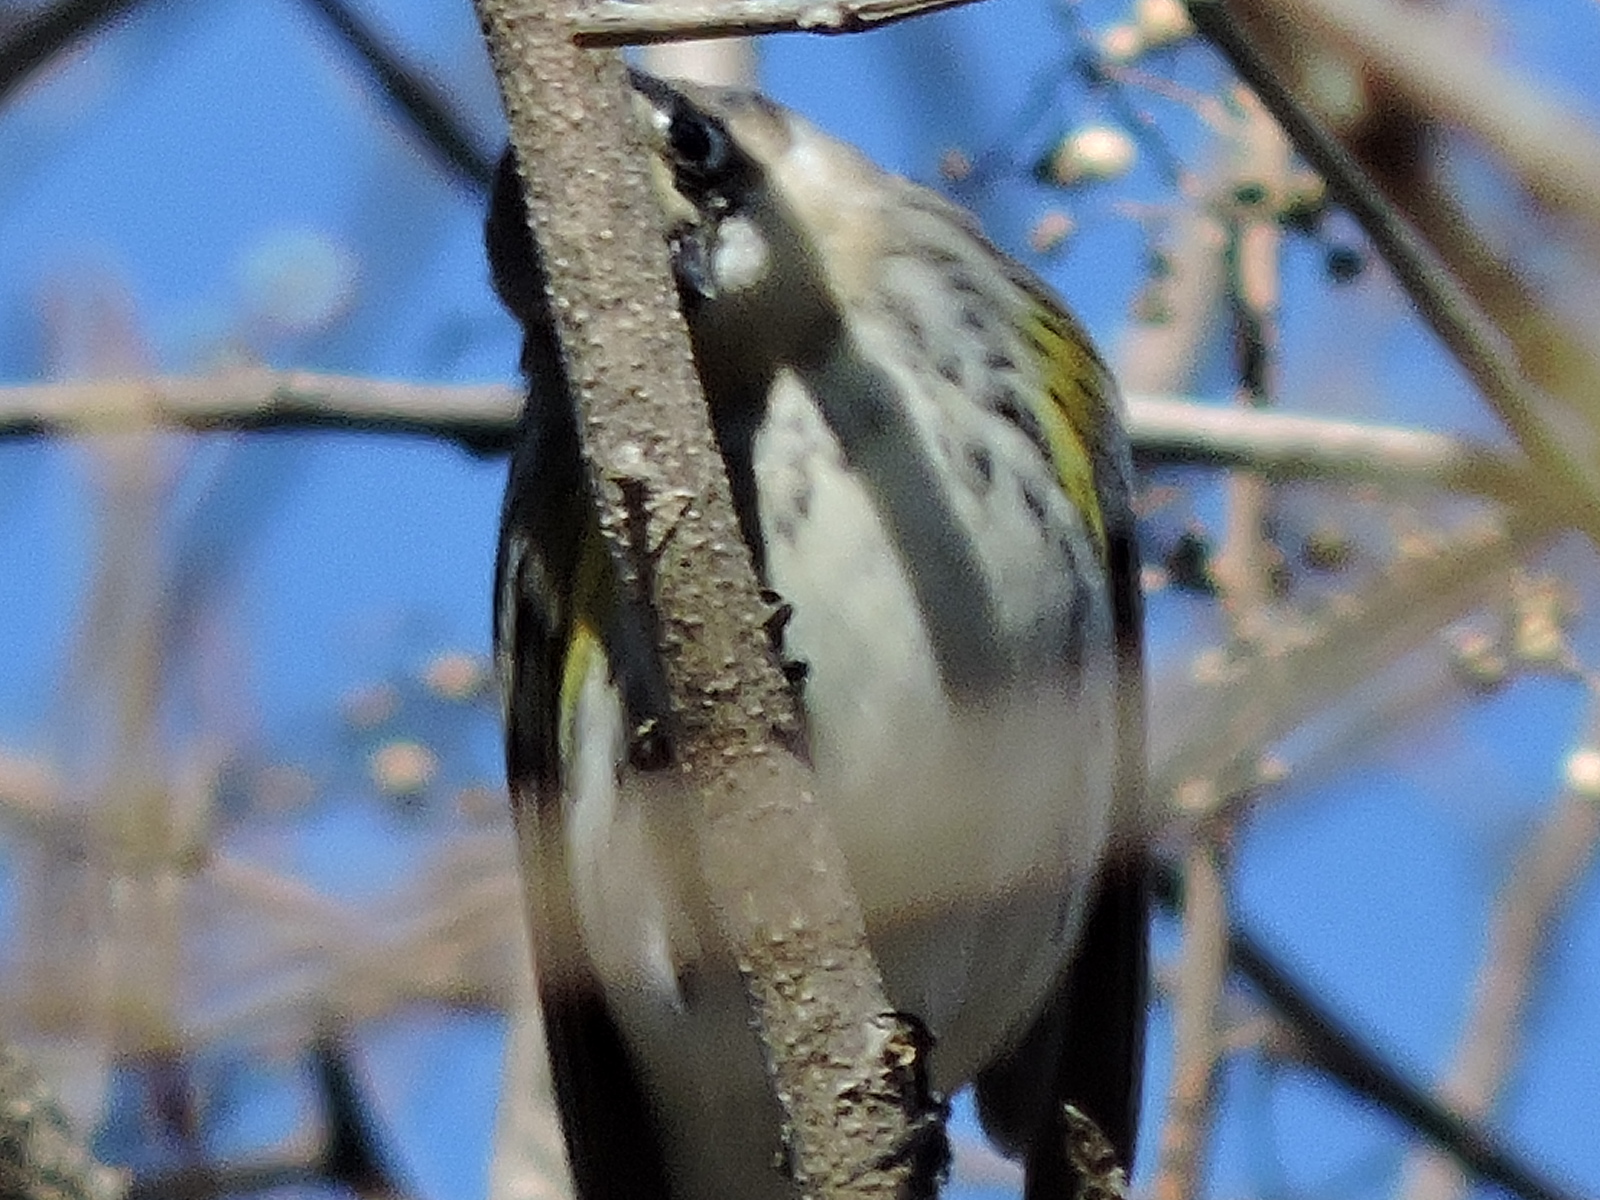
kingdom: Animalia
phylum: Chordata
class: Aves
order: Passeriformes
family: Parulidae
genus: Setophaga
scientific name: Setophaga coronata
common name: Myrtle warbler
